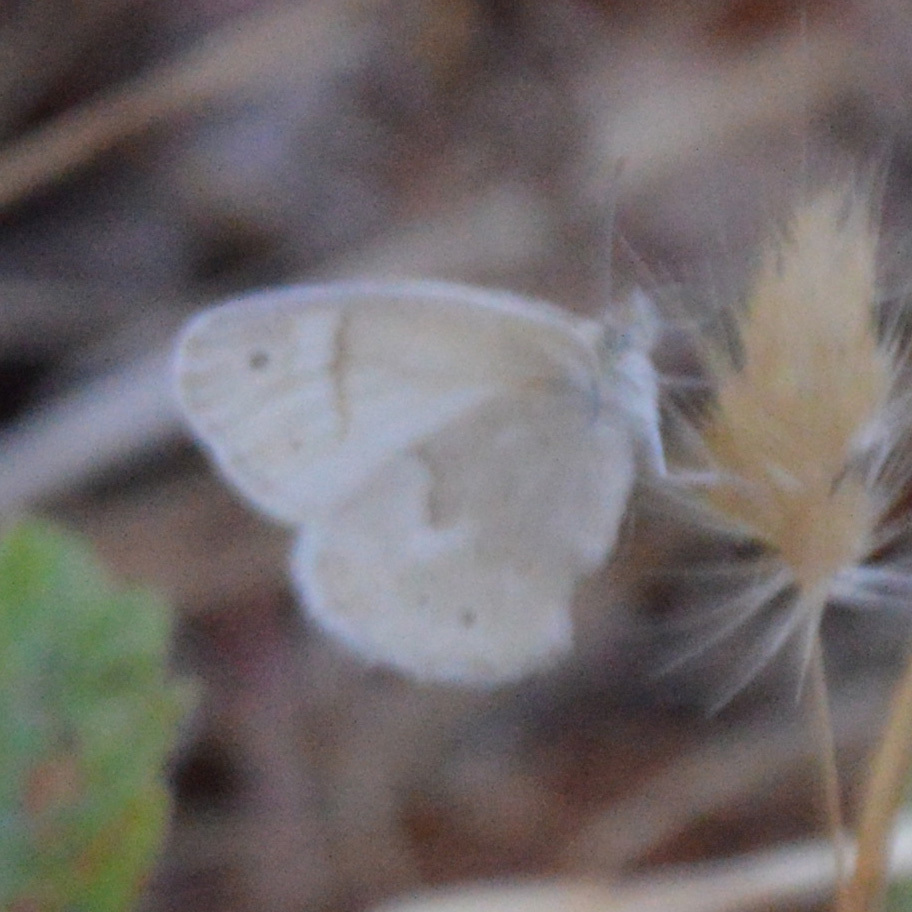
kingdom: Animalia
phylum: Arthropoda
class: Insecta
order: Lepidoptera
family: Nymphalidae
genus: Coenonympha
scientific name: Coenonympha california
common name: Common ringlet
